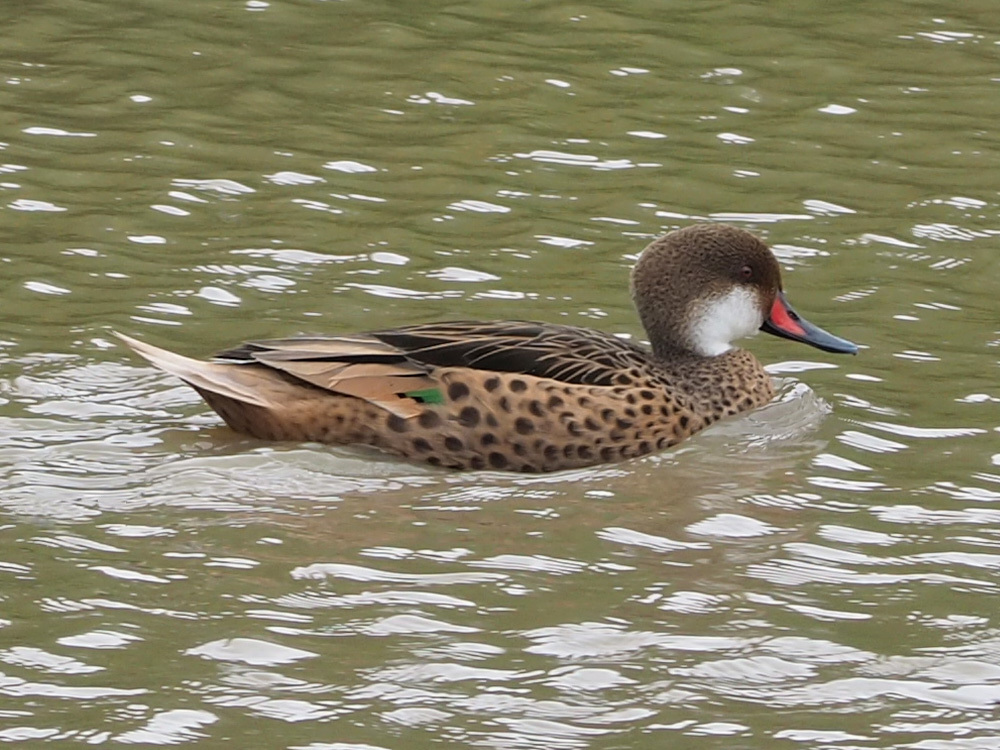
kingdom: Animalia
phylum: Chordata
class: Aves
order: Anseriformes
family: Anatidae
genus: Anas
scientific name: Anas bahamensis
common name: White-cheeked pintail
